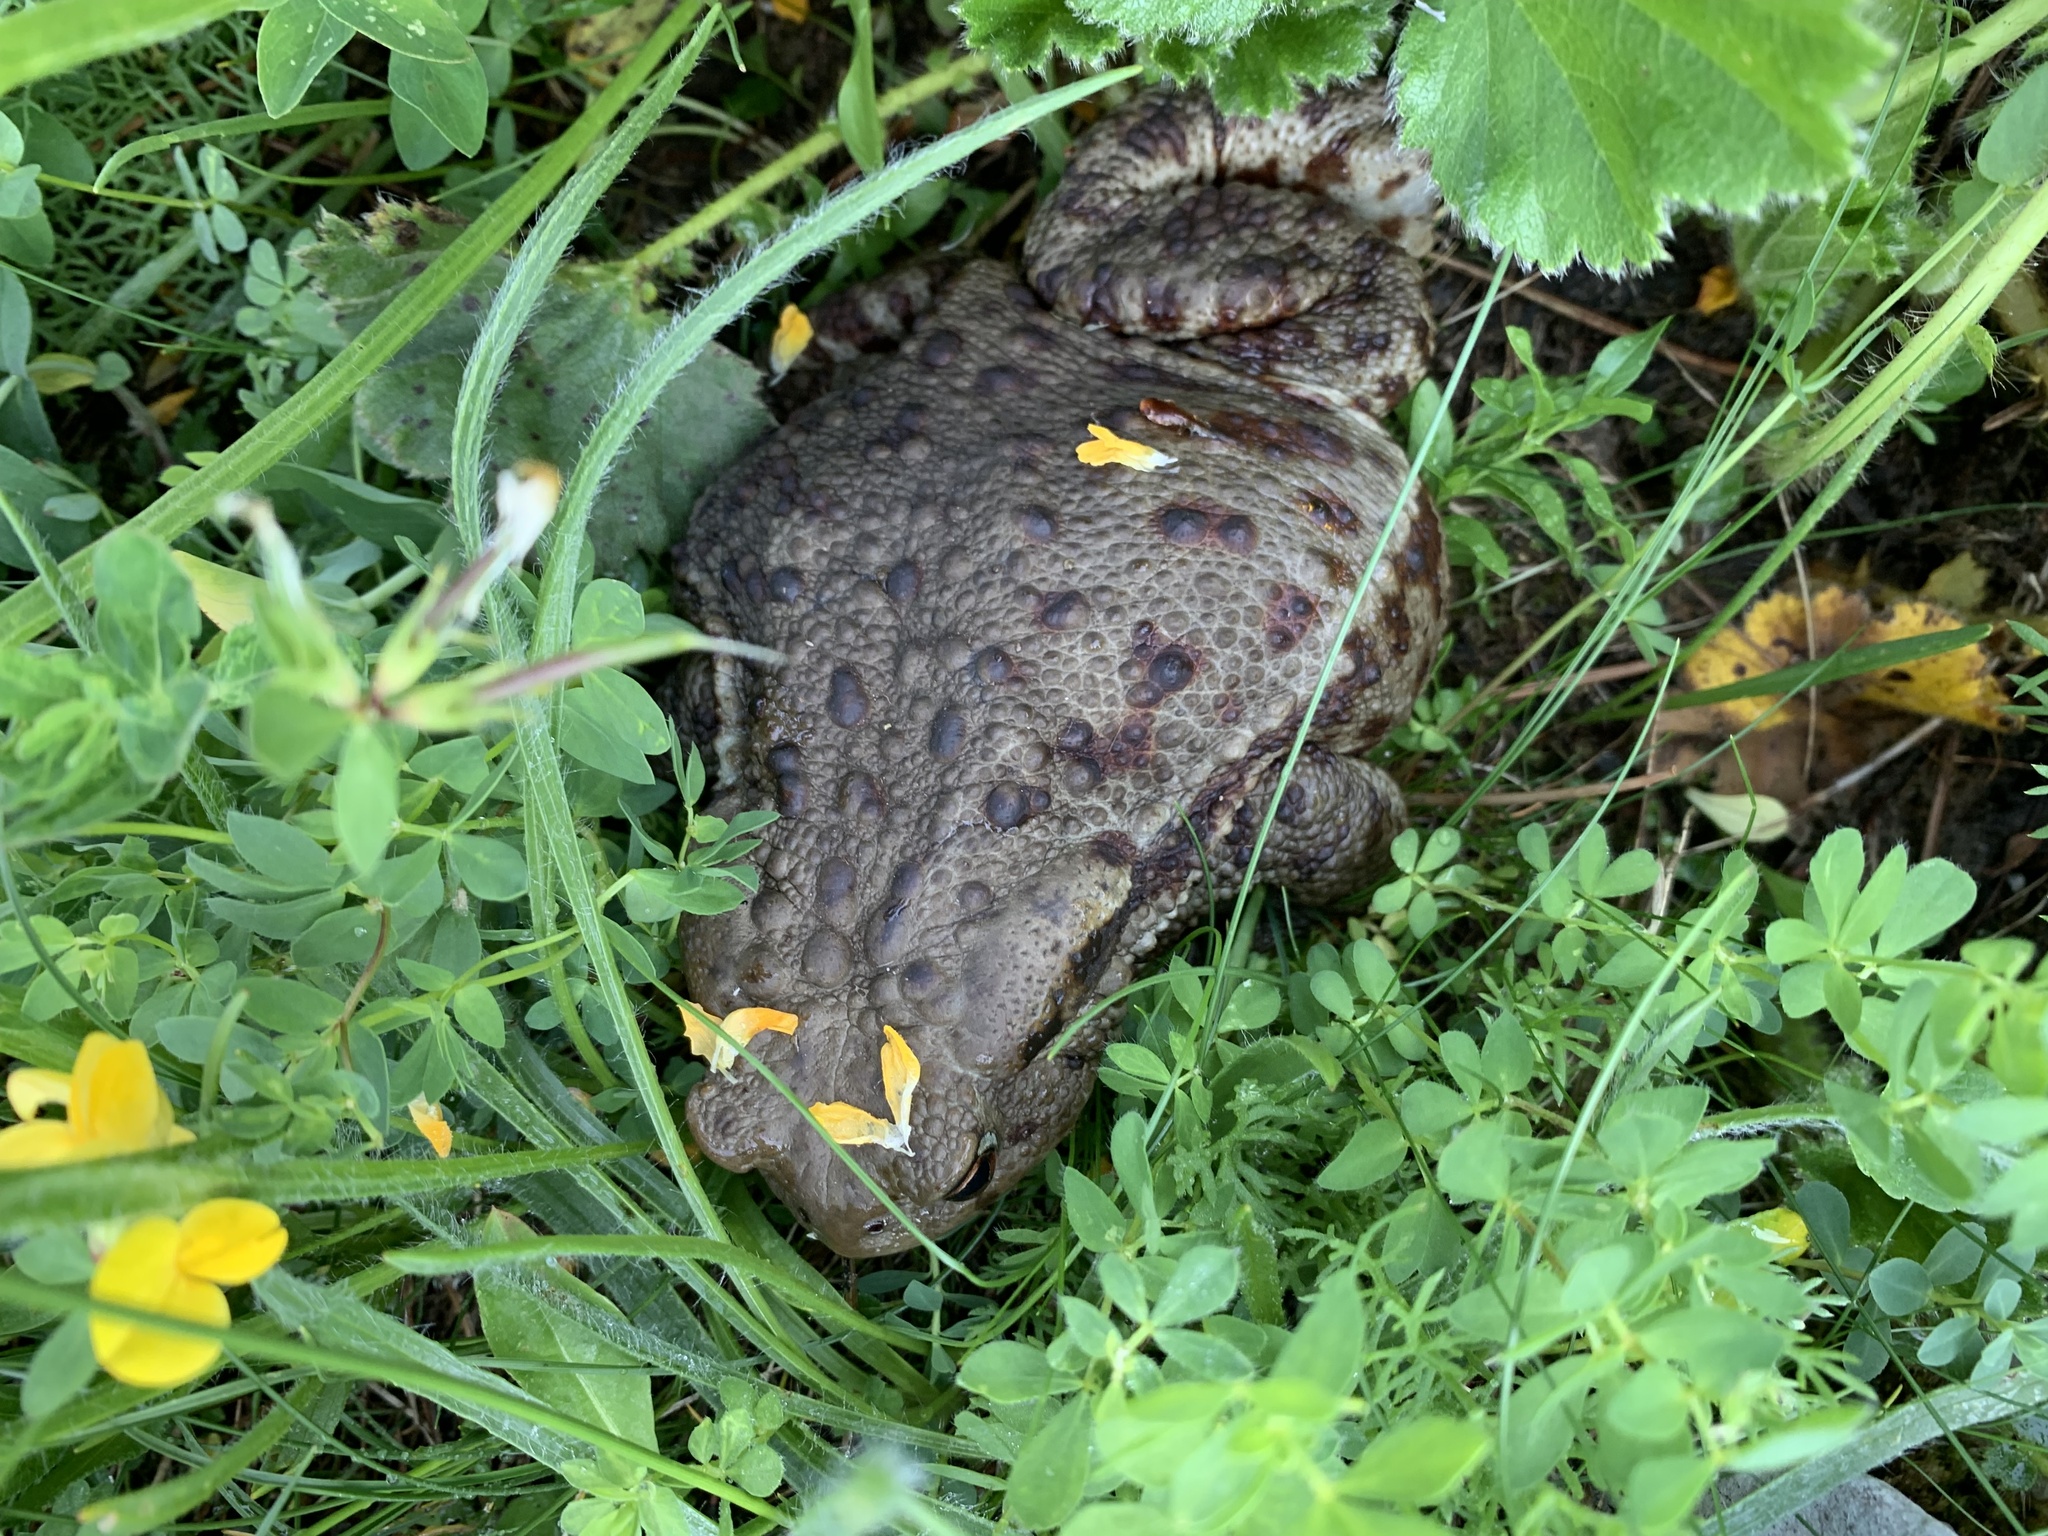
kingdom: Animalia
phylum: Chordata
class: Amphibia
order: Anura
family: Bufonidae
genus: Bufo
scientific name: Bufo bufo
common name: Common toad
